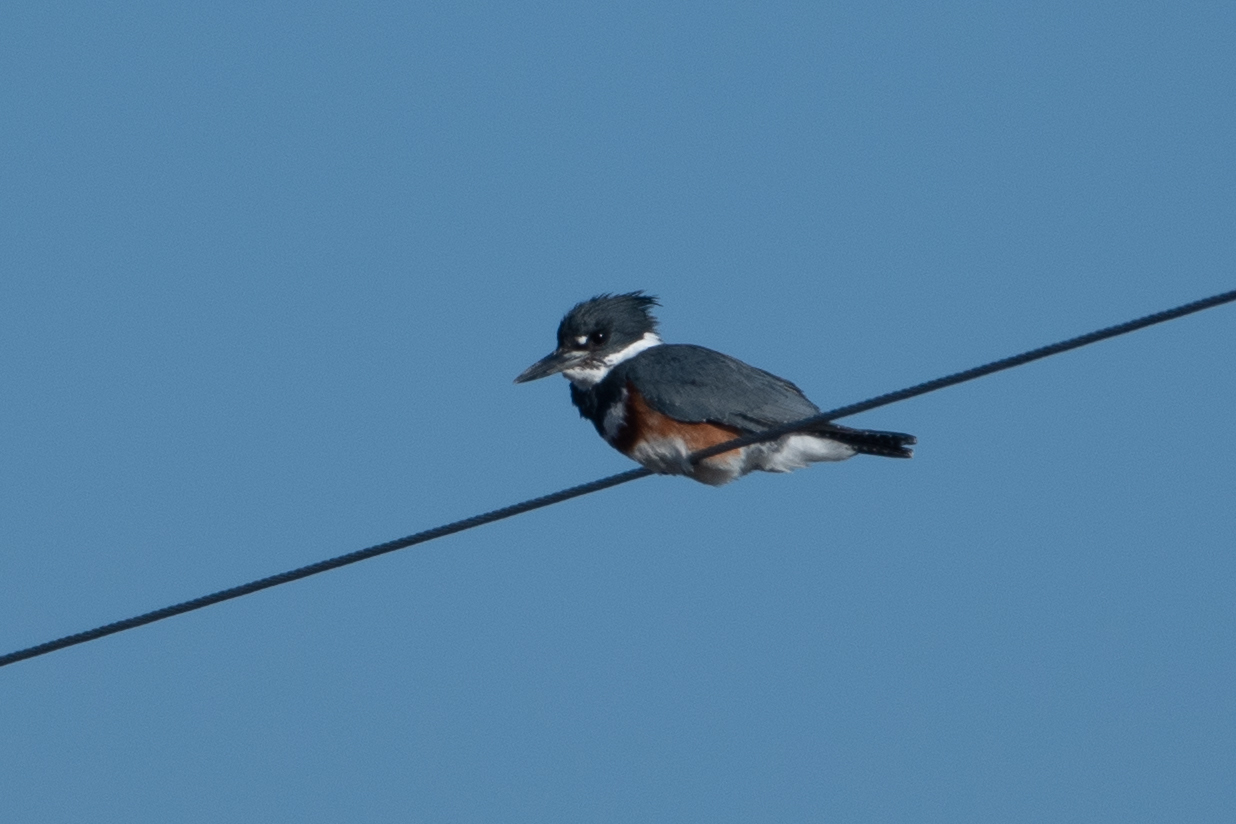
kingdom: Animalia
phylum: Chordata
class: Aves
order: Coraciiformes
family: Alcedinidae
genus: Megaceryle
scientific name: Megaceryle alcyon
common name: Belted kingfisher
